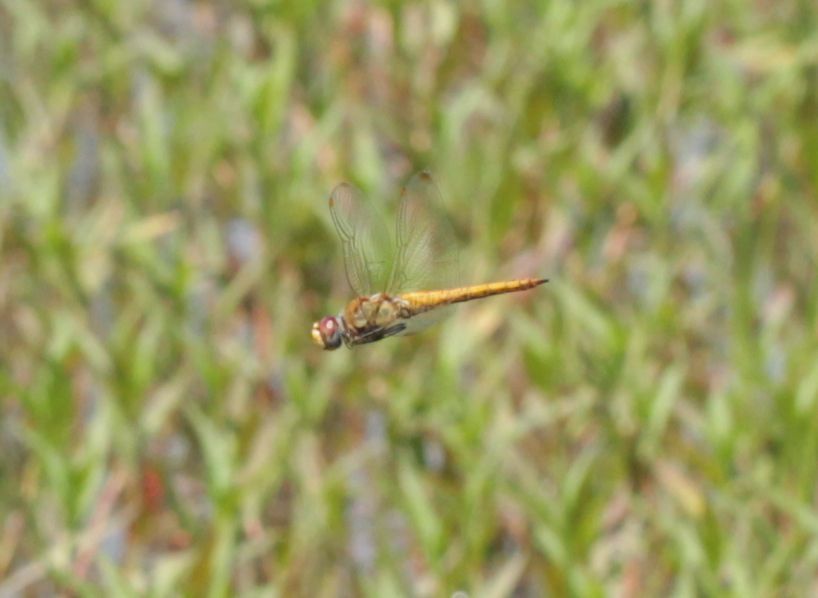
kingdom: Animalia
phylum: Arthropoda
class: Insecta
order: Odonata
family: Libellulidae
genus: Pantala
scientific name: Pantala flavescens
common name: Wandering glider
